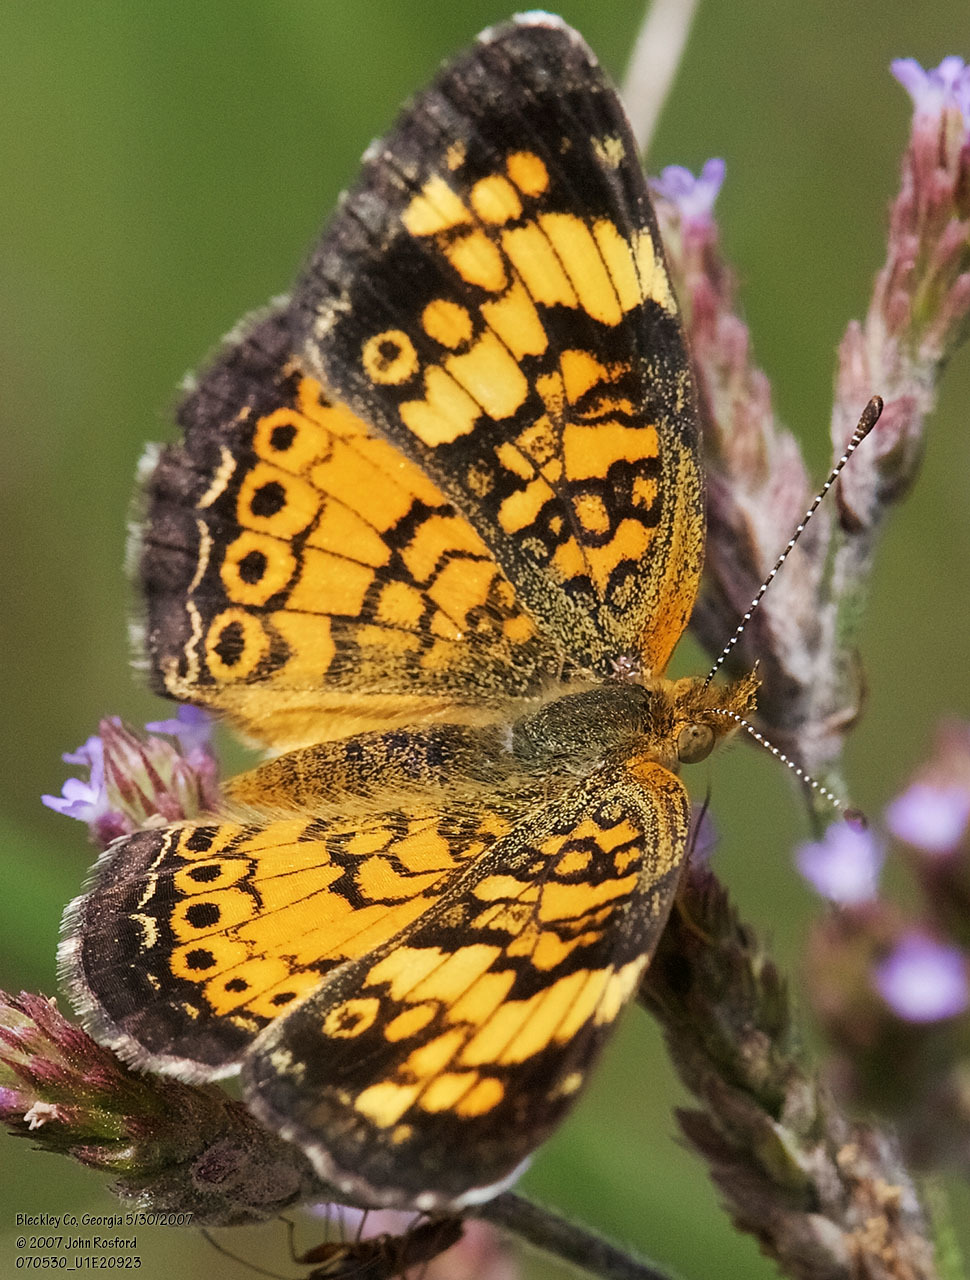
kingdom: Animalia
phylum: Arthropoda
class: Insecta
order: Lepidoptera
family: Nymphalidae
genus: Phyciodes
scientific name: Phyciodes tharos
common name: Pearl crescent
